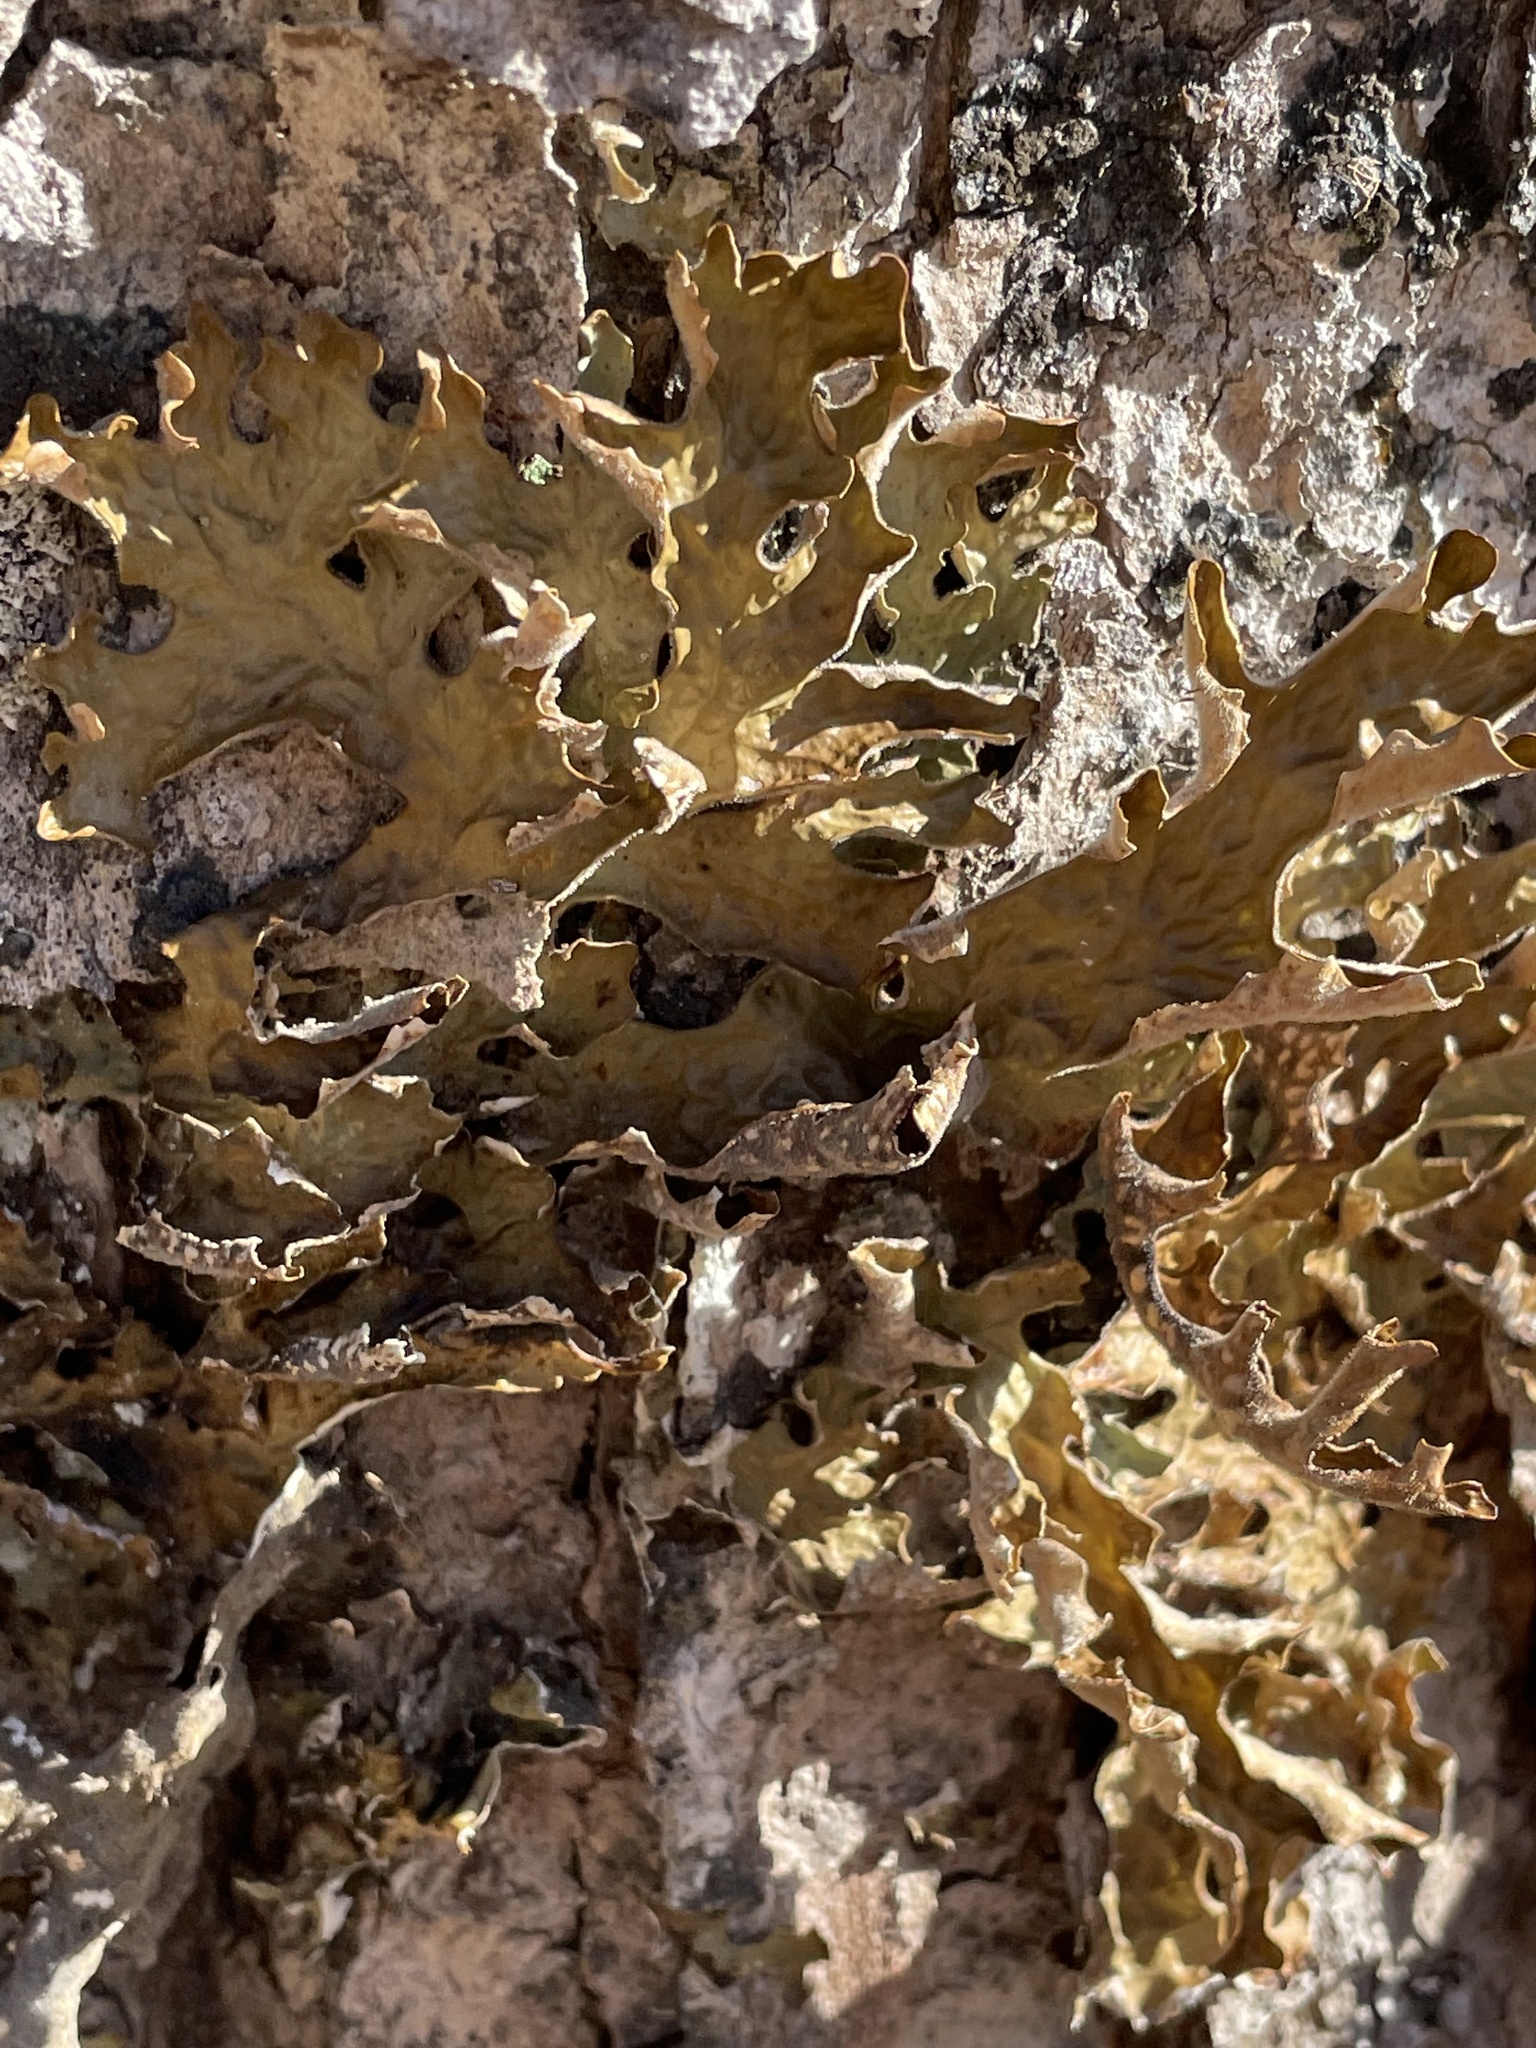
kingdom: Fungi
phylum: Ascomycota
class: Lecanoromycetes
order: Peltigerales
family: Lobariaceae
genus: Lobaria
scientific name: Lobaria pulmonaria
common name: Lungwort
